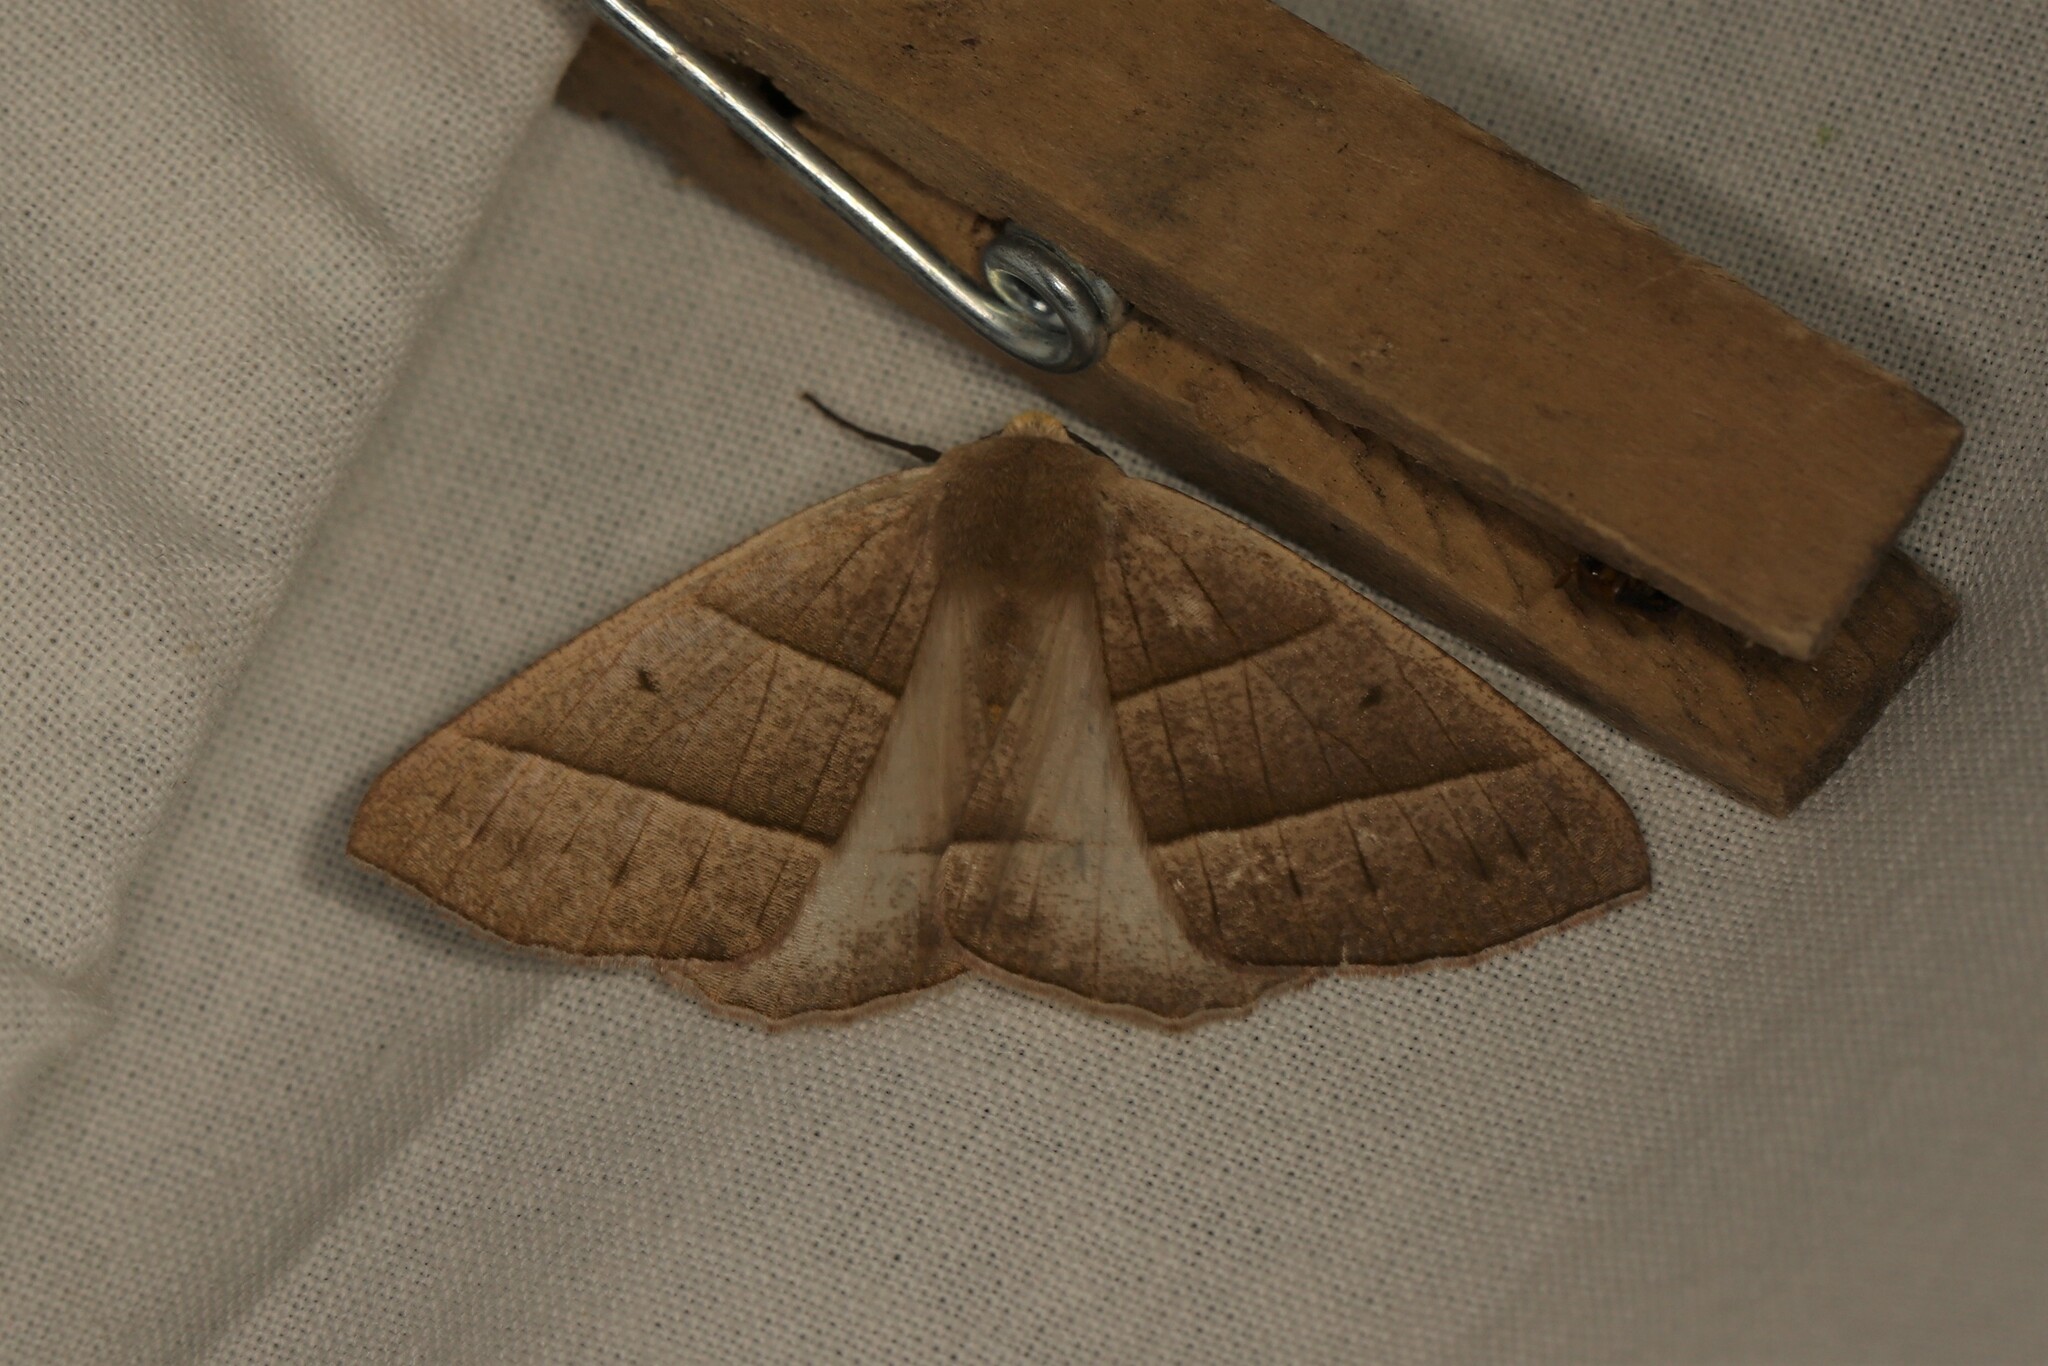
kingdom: Animalia
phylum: Arthropoda
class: Insecta
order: Lepidoptera
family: Geometridae
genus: Cosmophyga
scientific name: Cosmophyga privataria
